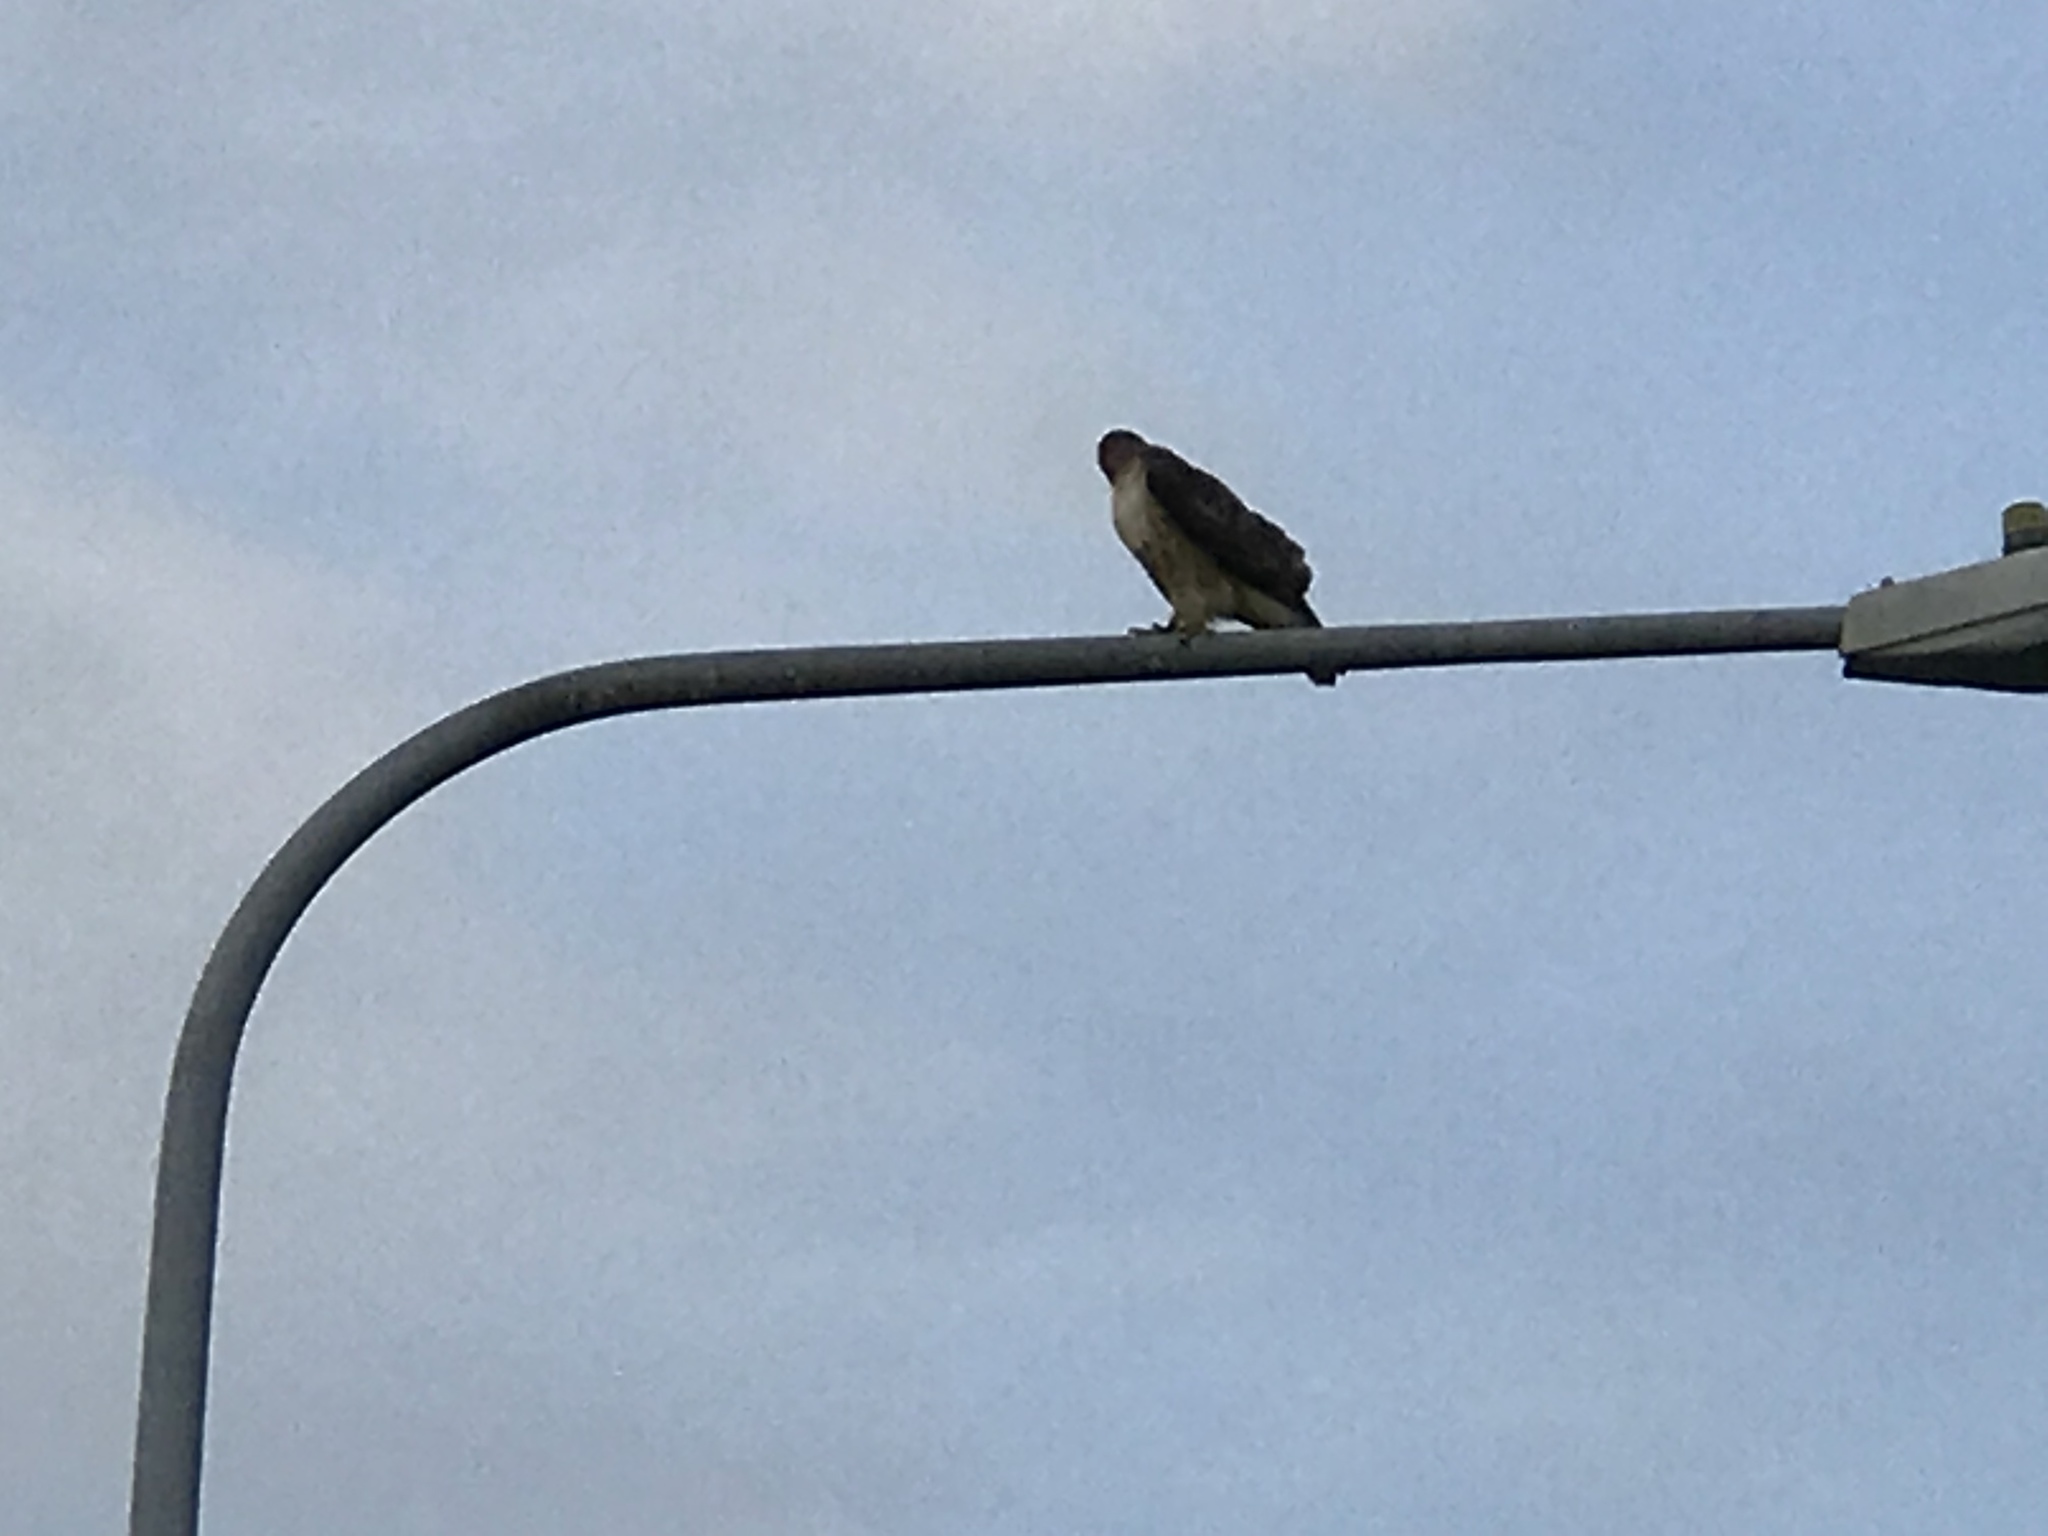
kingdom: Animalia
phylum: Chordata
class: Aves
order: Accipitriformes
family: Accipitridae
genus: Buteo
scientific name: Buteo jamaicensis
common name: Red-tailed hawk
